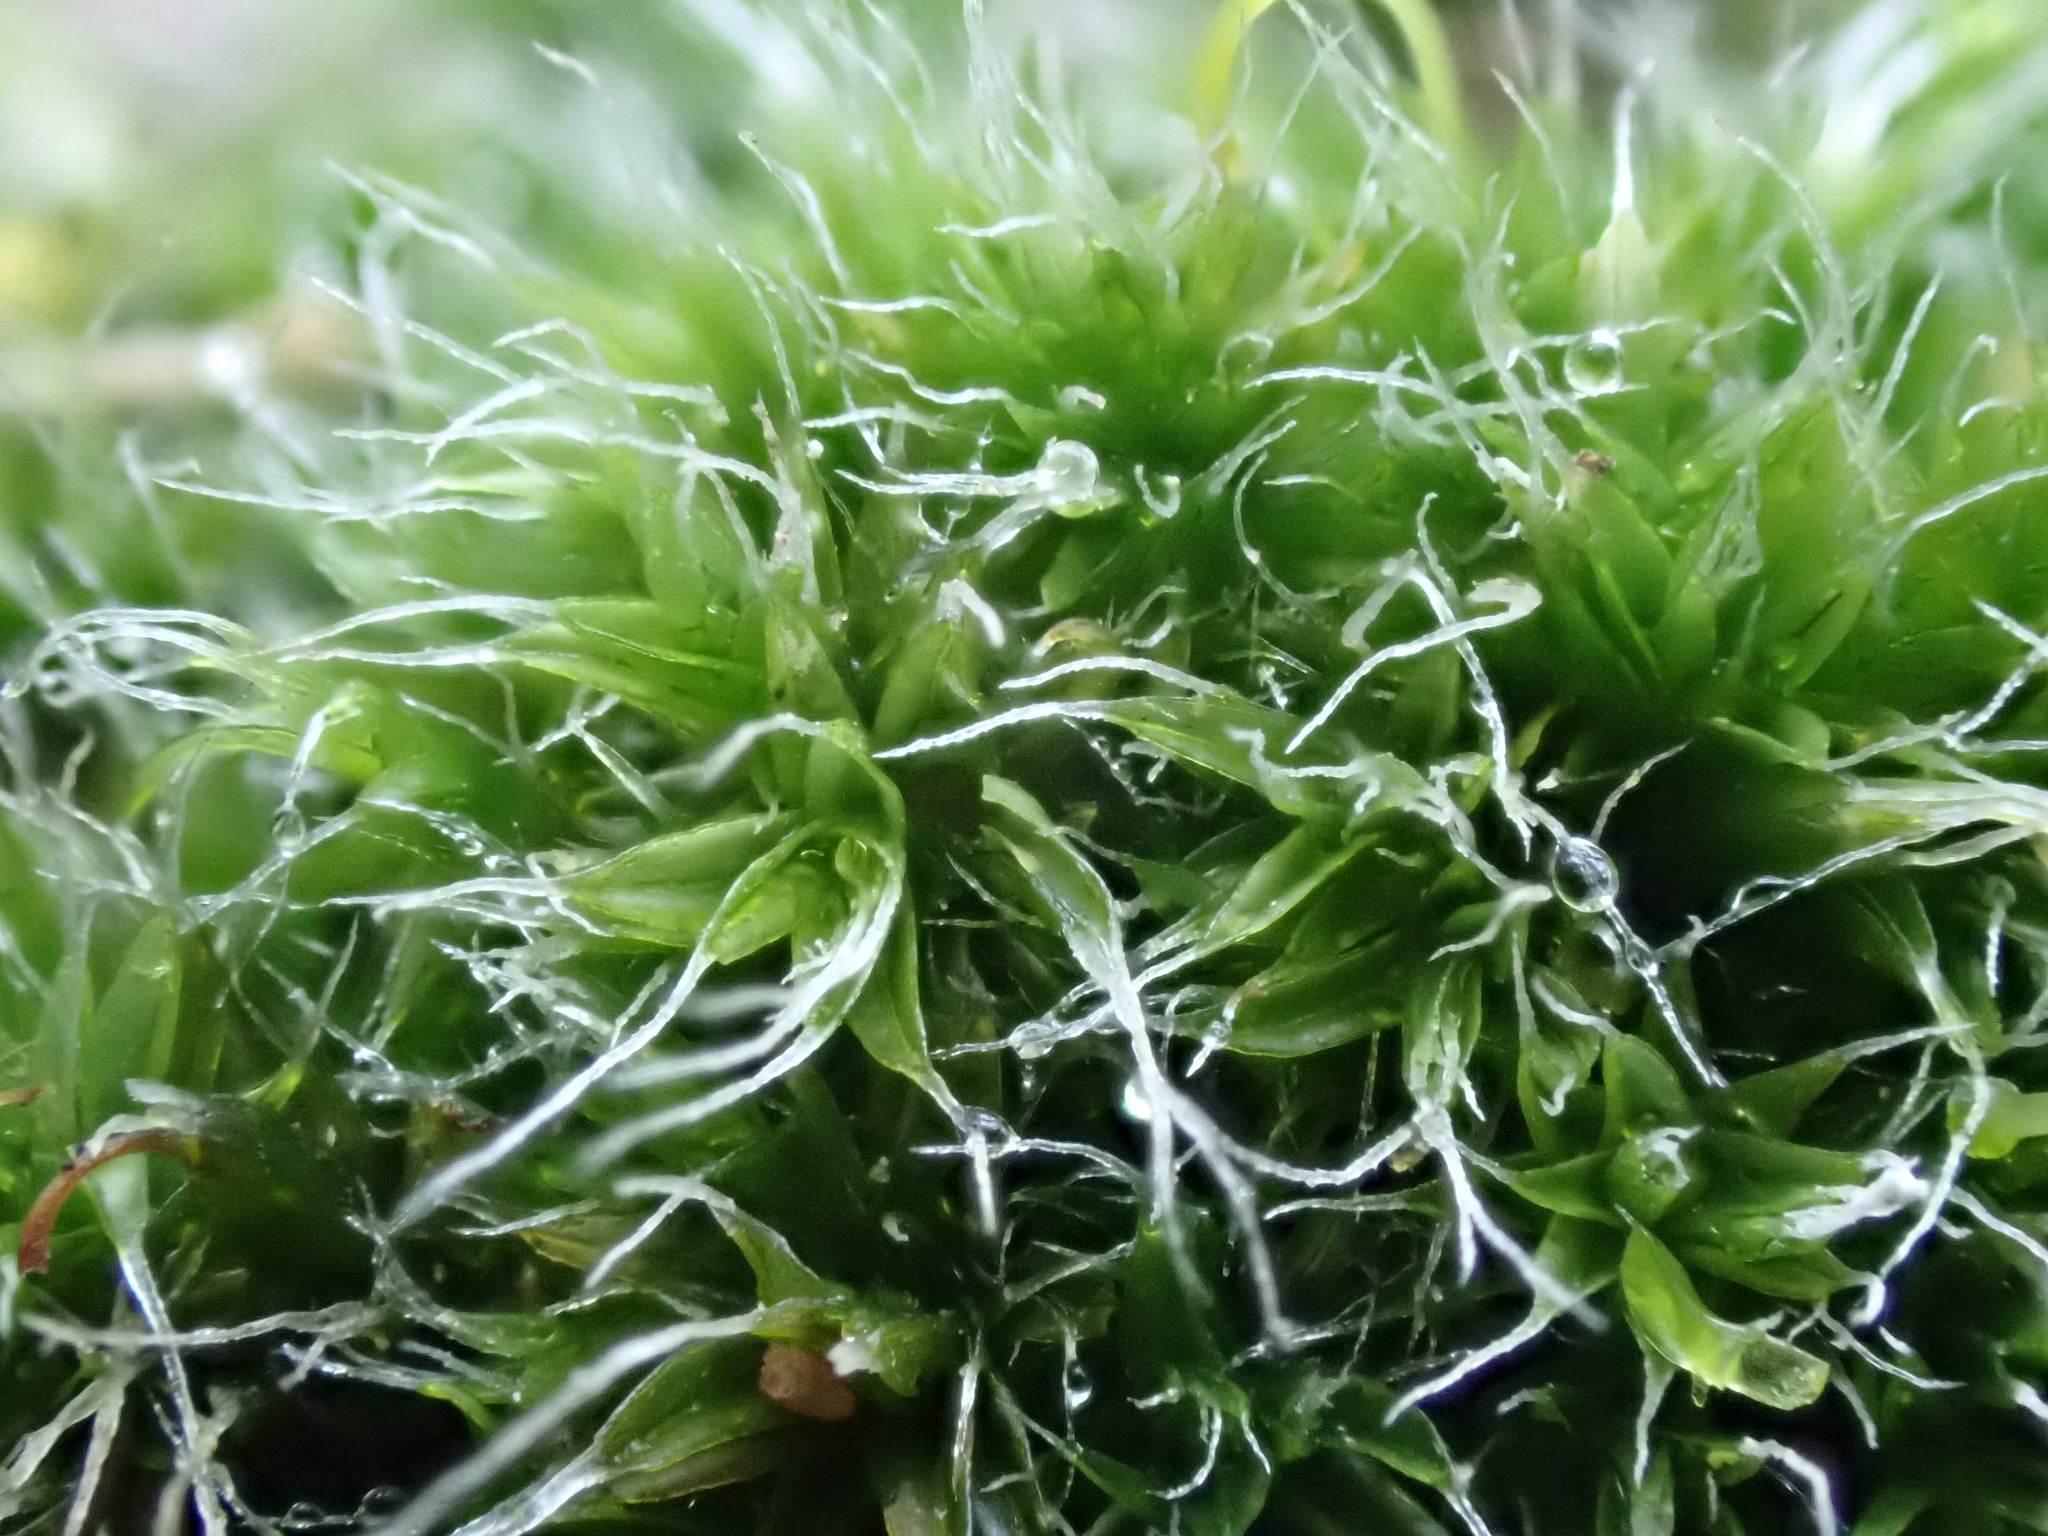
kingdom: Plantae
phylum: Bryophyta
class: Bryopsida
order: Grimmiales
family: Grimmiaceae
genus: Grimmia
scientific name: Grimmia pulvinata
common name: Grey-cushioned grimmia
